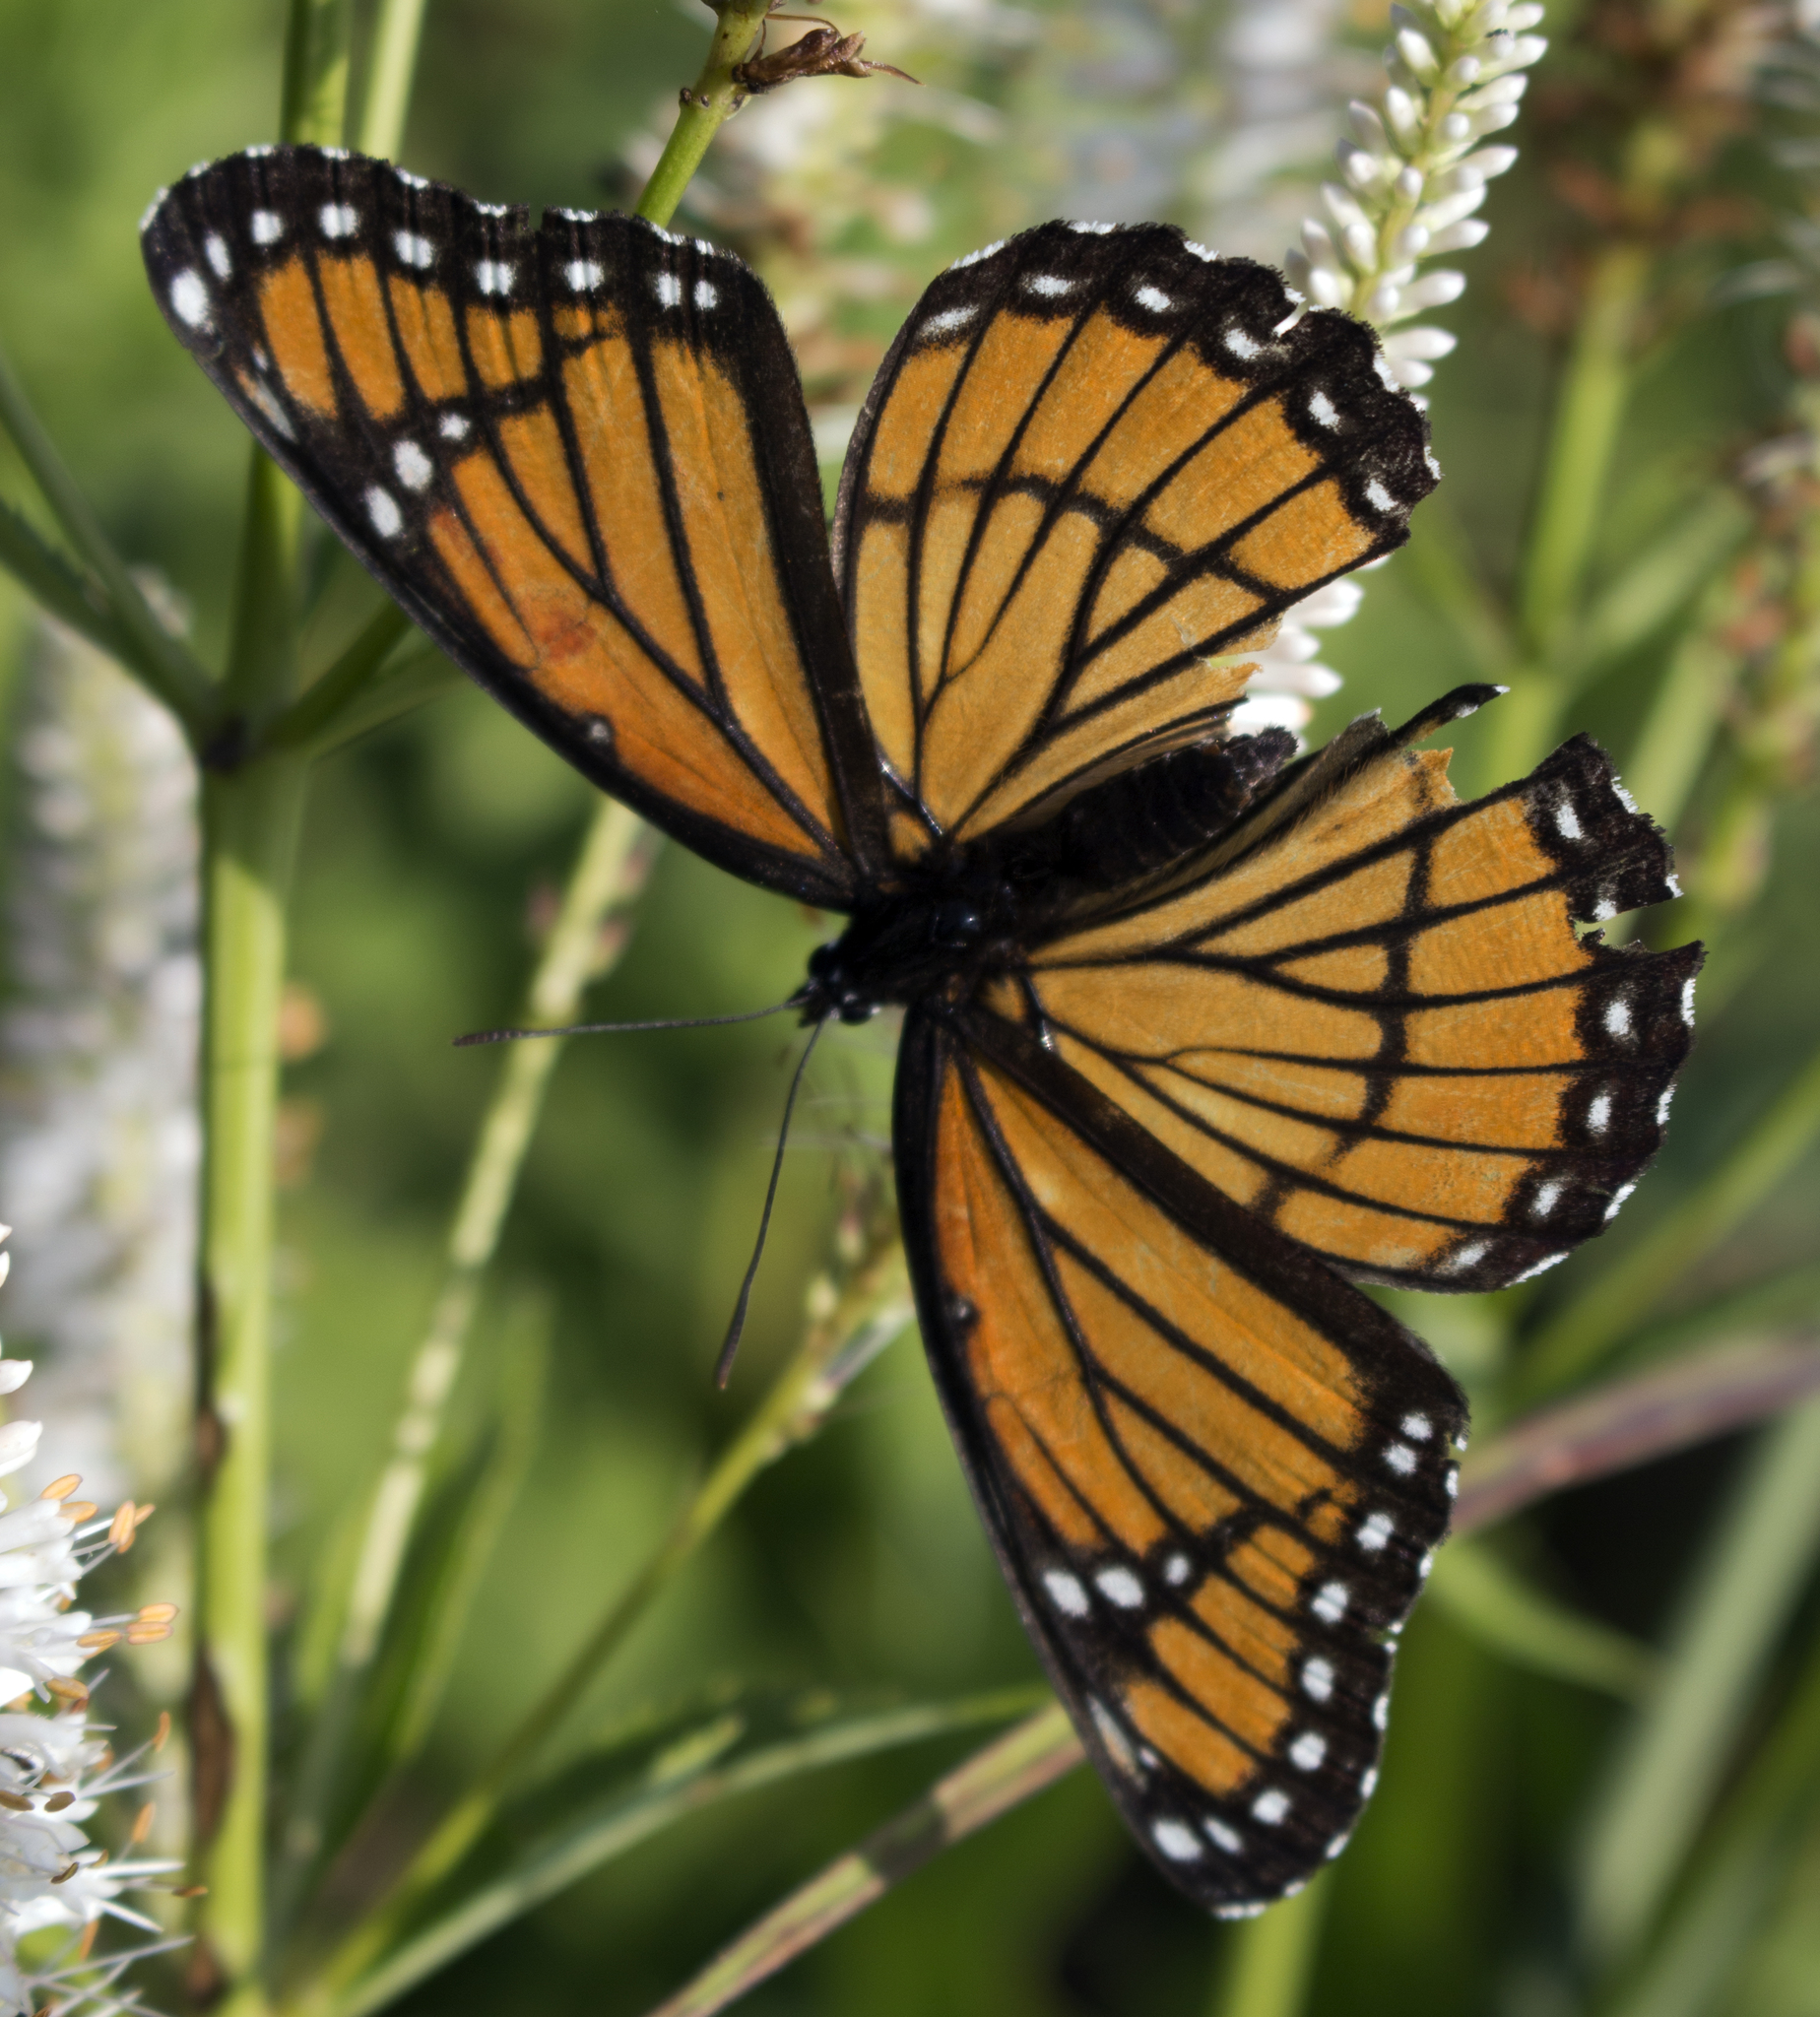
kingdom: Animalia
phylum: Arthropoda
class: Insecta
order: Lepidoptera
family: Nymphalidae
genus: Limenitis
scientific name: Limenitis archippus
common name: Viceroy
